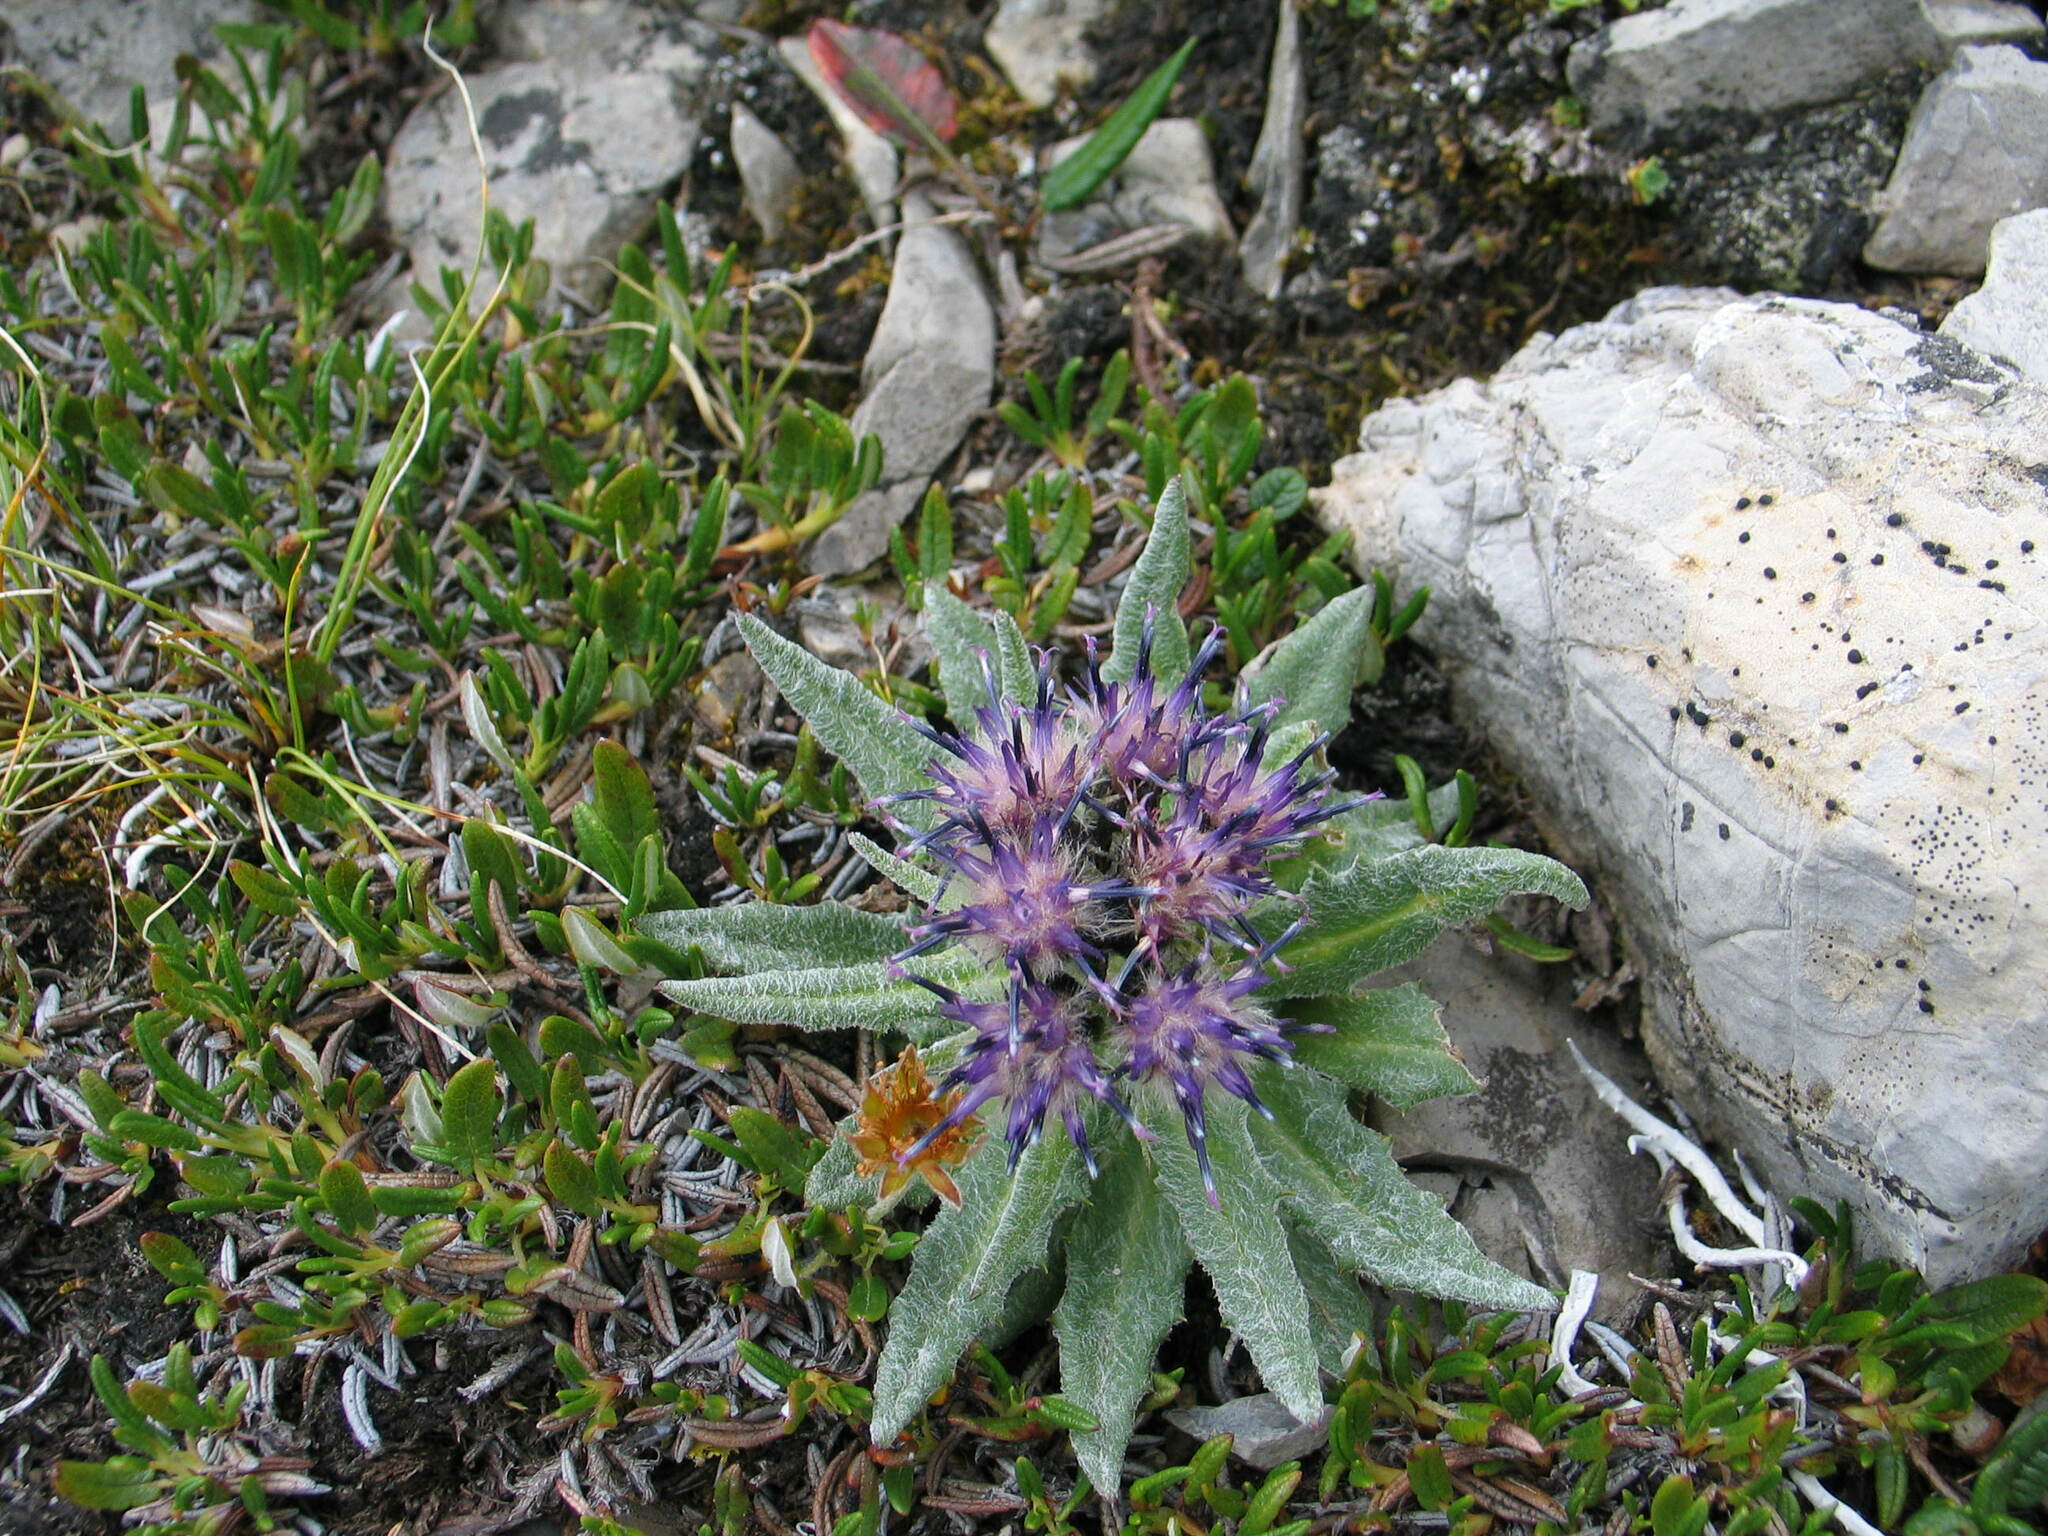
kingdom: Plantae
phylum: Tracheophyta
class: Magnoliopsida
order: Asterales
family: Asteraceae
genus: Saussurea
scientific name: Saussurea nuda
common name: Chaffless saw-wort
